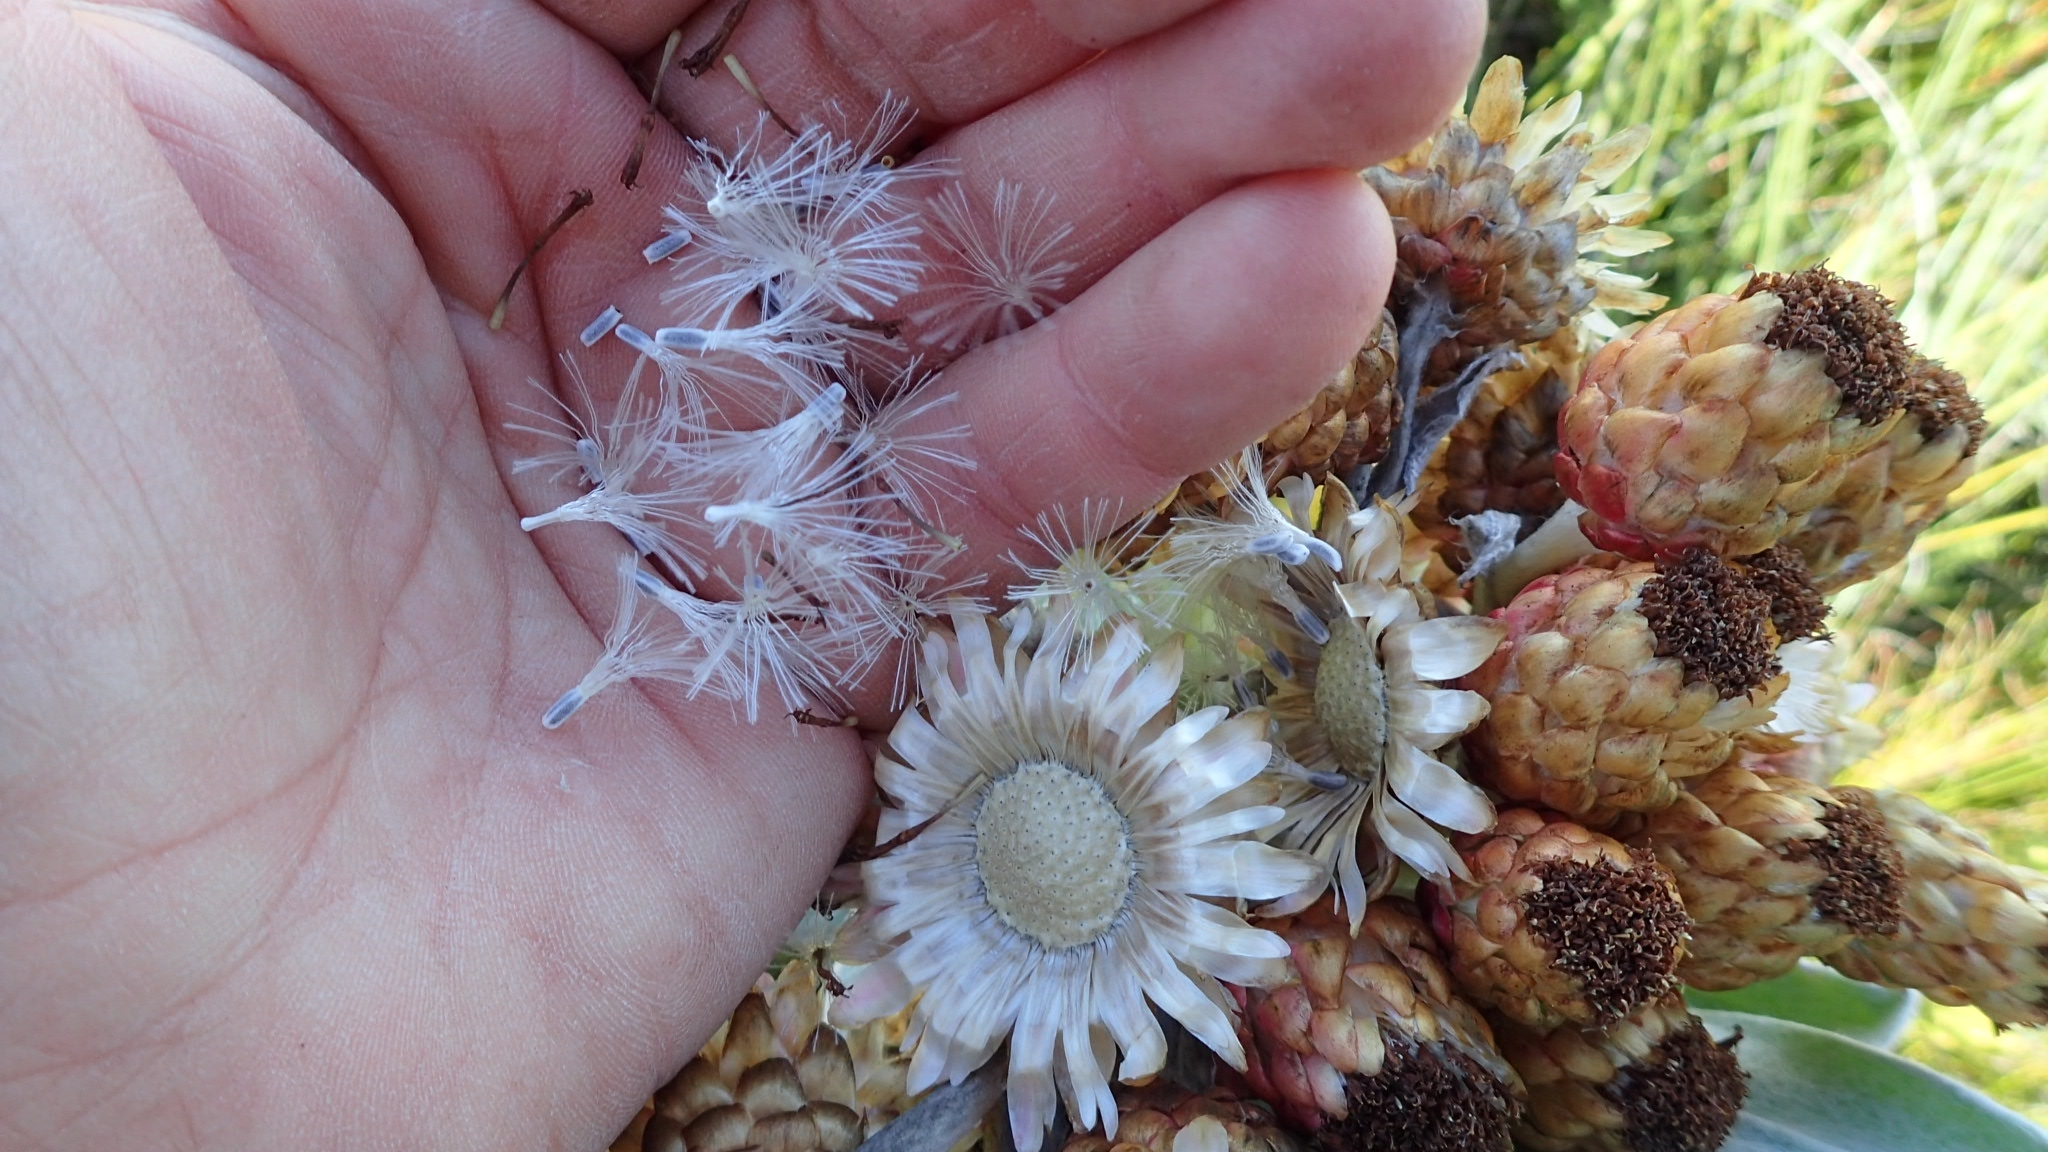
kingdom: Plantae
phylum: Tracheophyta
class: Magnoliopsida
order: Asterales
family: Asteraceae
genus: Syncarpha
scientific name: Syncarpha eximia
